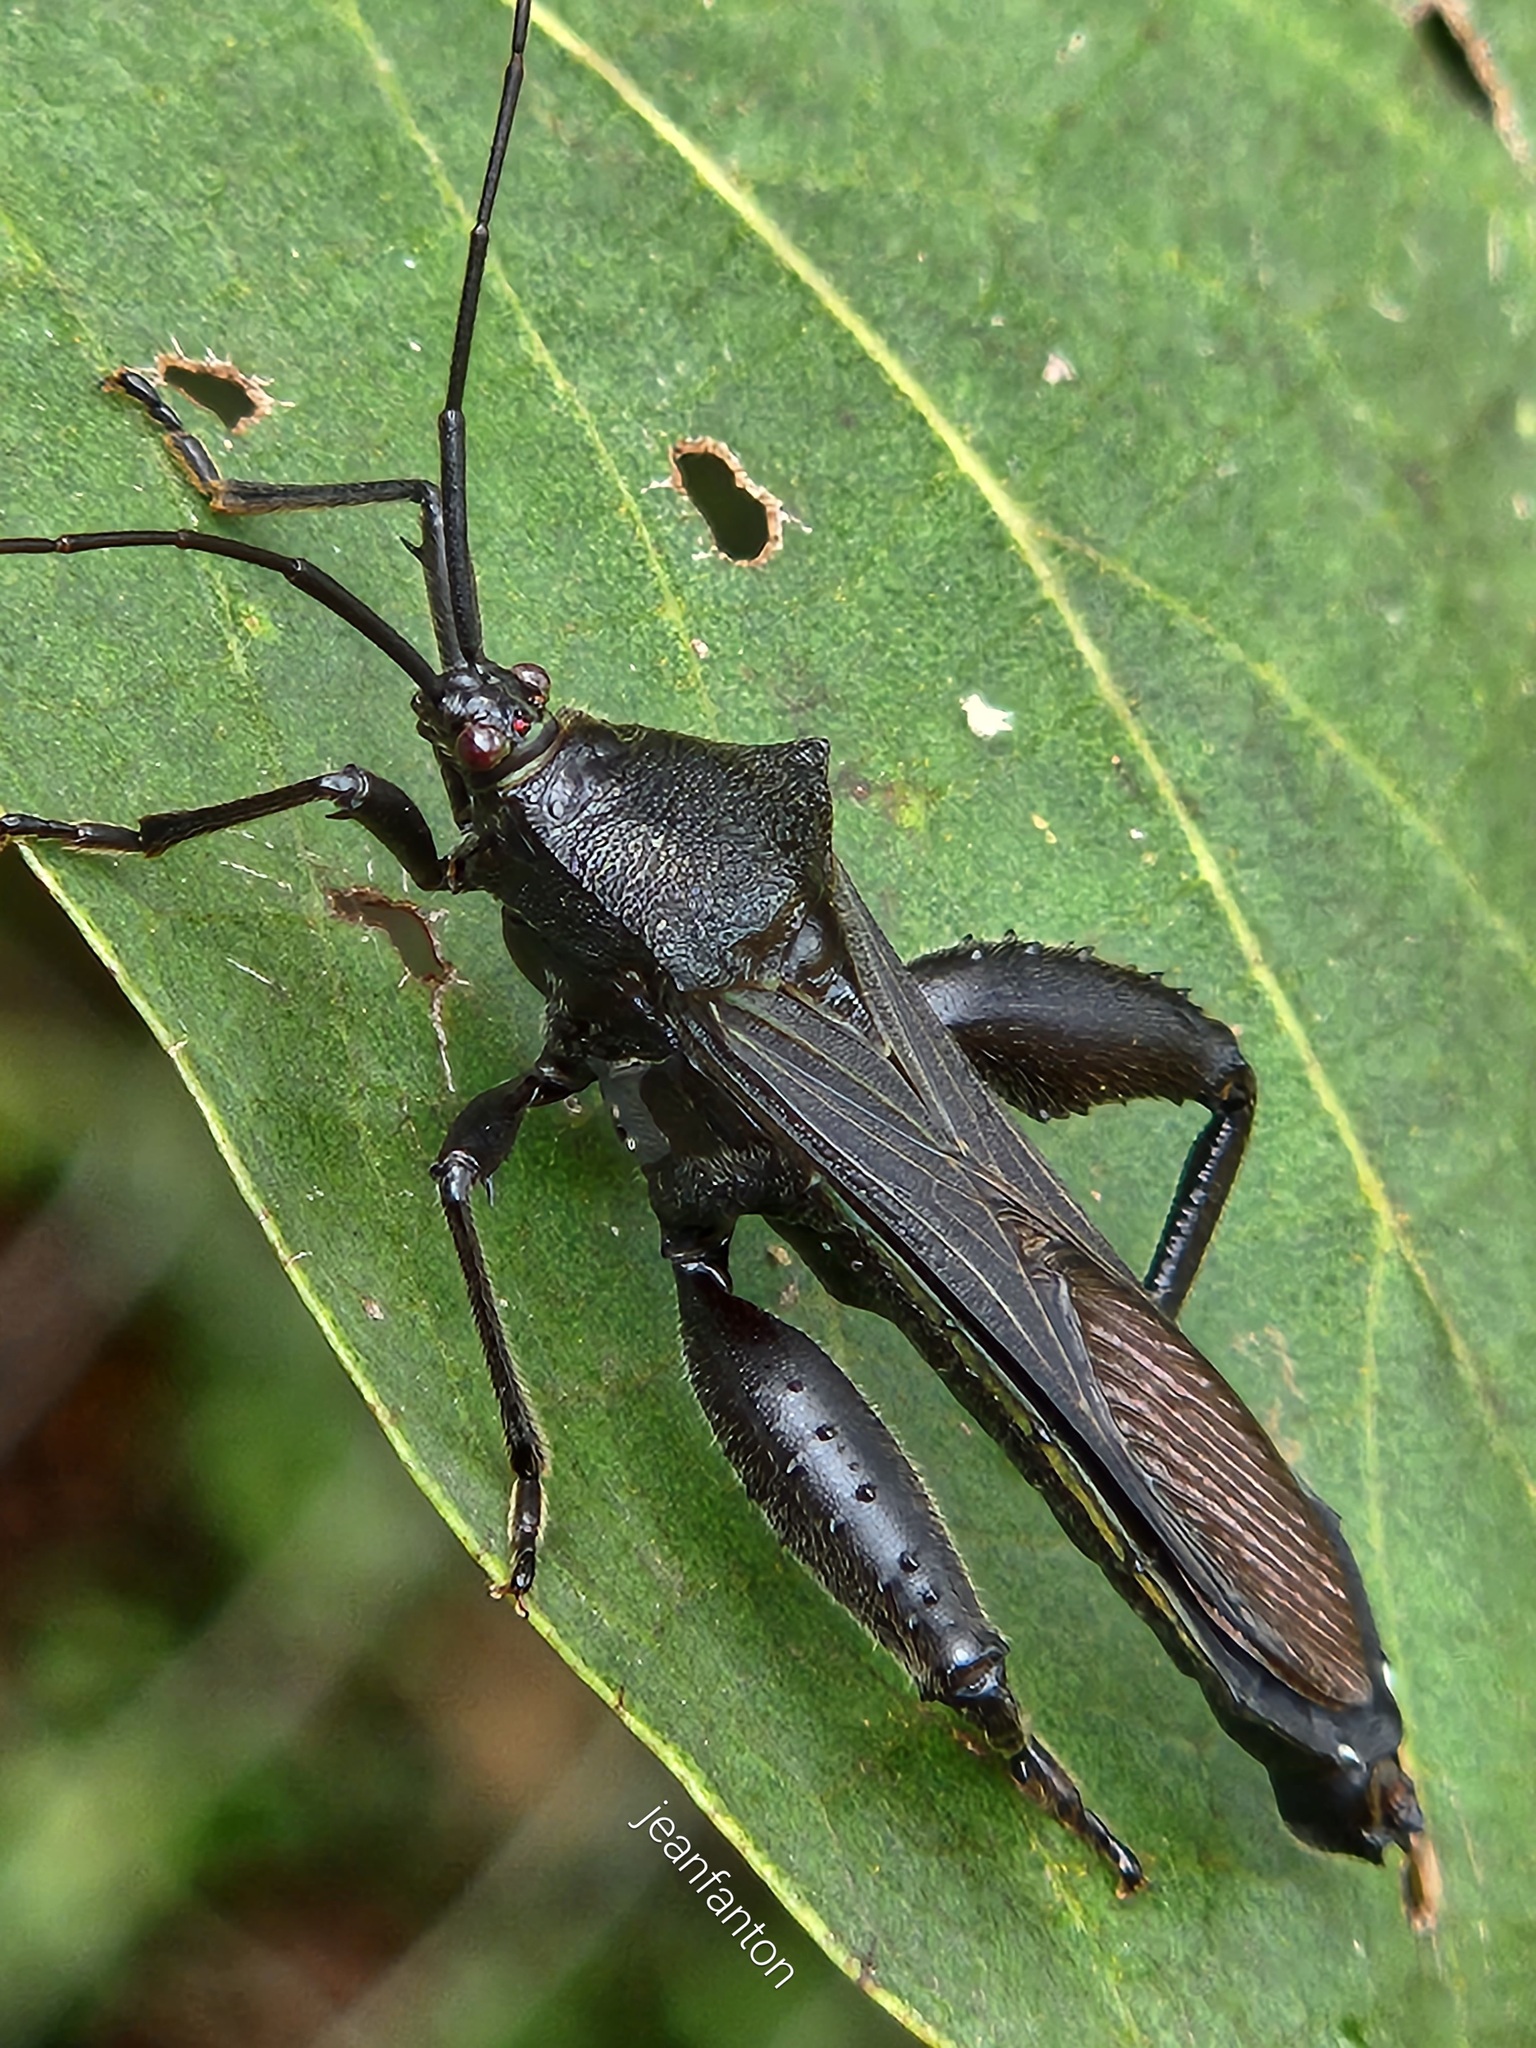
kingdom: Animalia
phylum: Arthropoda
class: Insecta
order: Hemiptera
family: Coreidae
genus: Grammopoecilus
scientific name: Grammopoecilus angustatus
